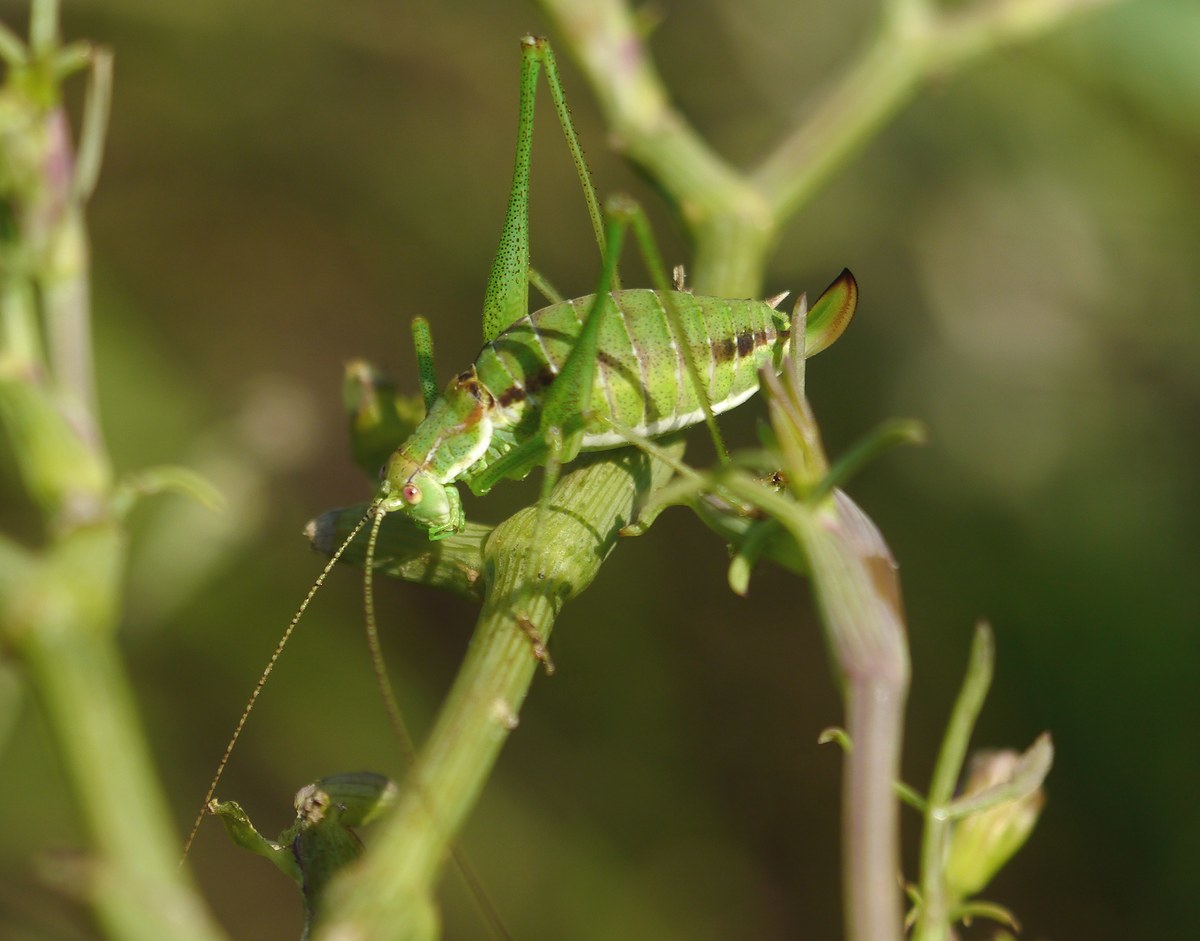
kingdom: Animalia
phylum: Arthropoda
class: Insecta
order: Orthoptera
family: Tettigoniidae
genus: Leptophyes
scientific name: Leptophyes albovittata
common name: Striped bush-cricket
